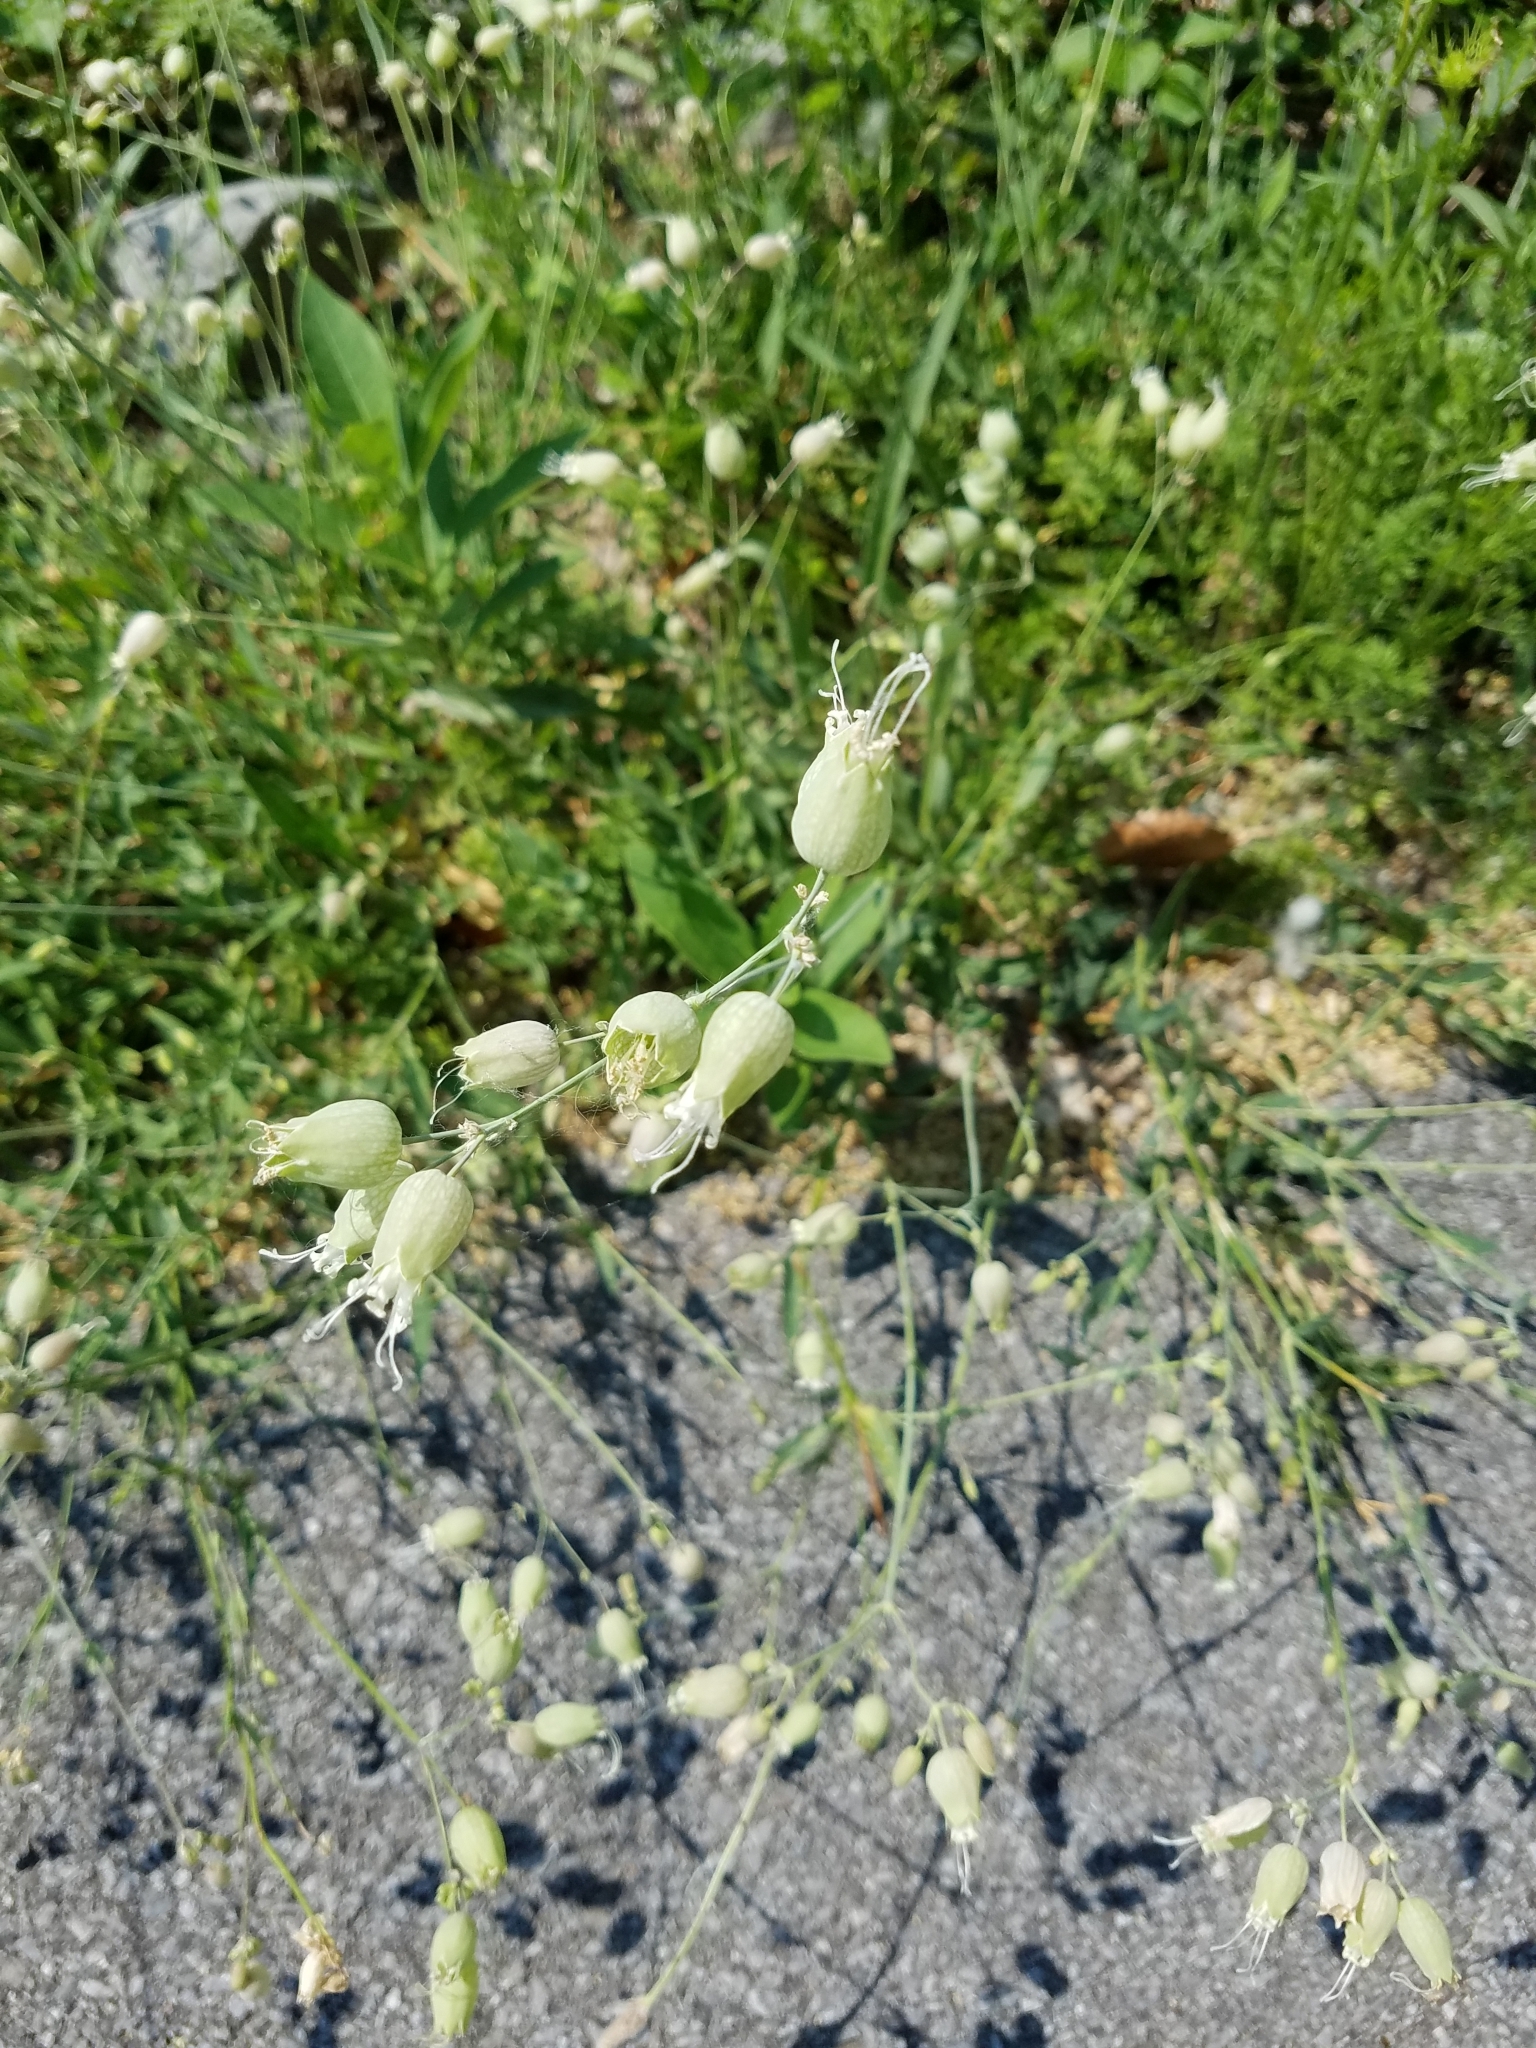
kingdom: Plantae
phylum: Tracheophyta
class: Magnoliopsida
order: Caryophyllales
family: Caryophyllaceae
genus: Silene
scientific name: Silene vulgaris
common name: Bladder campion
